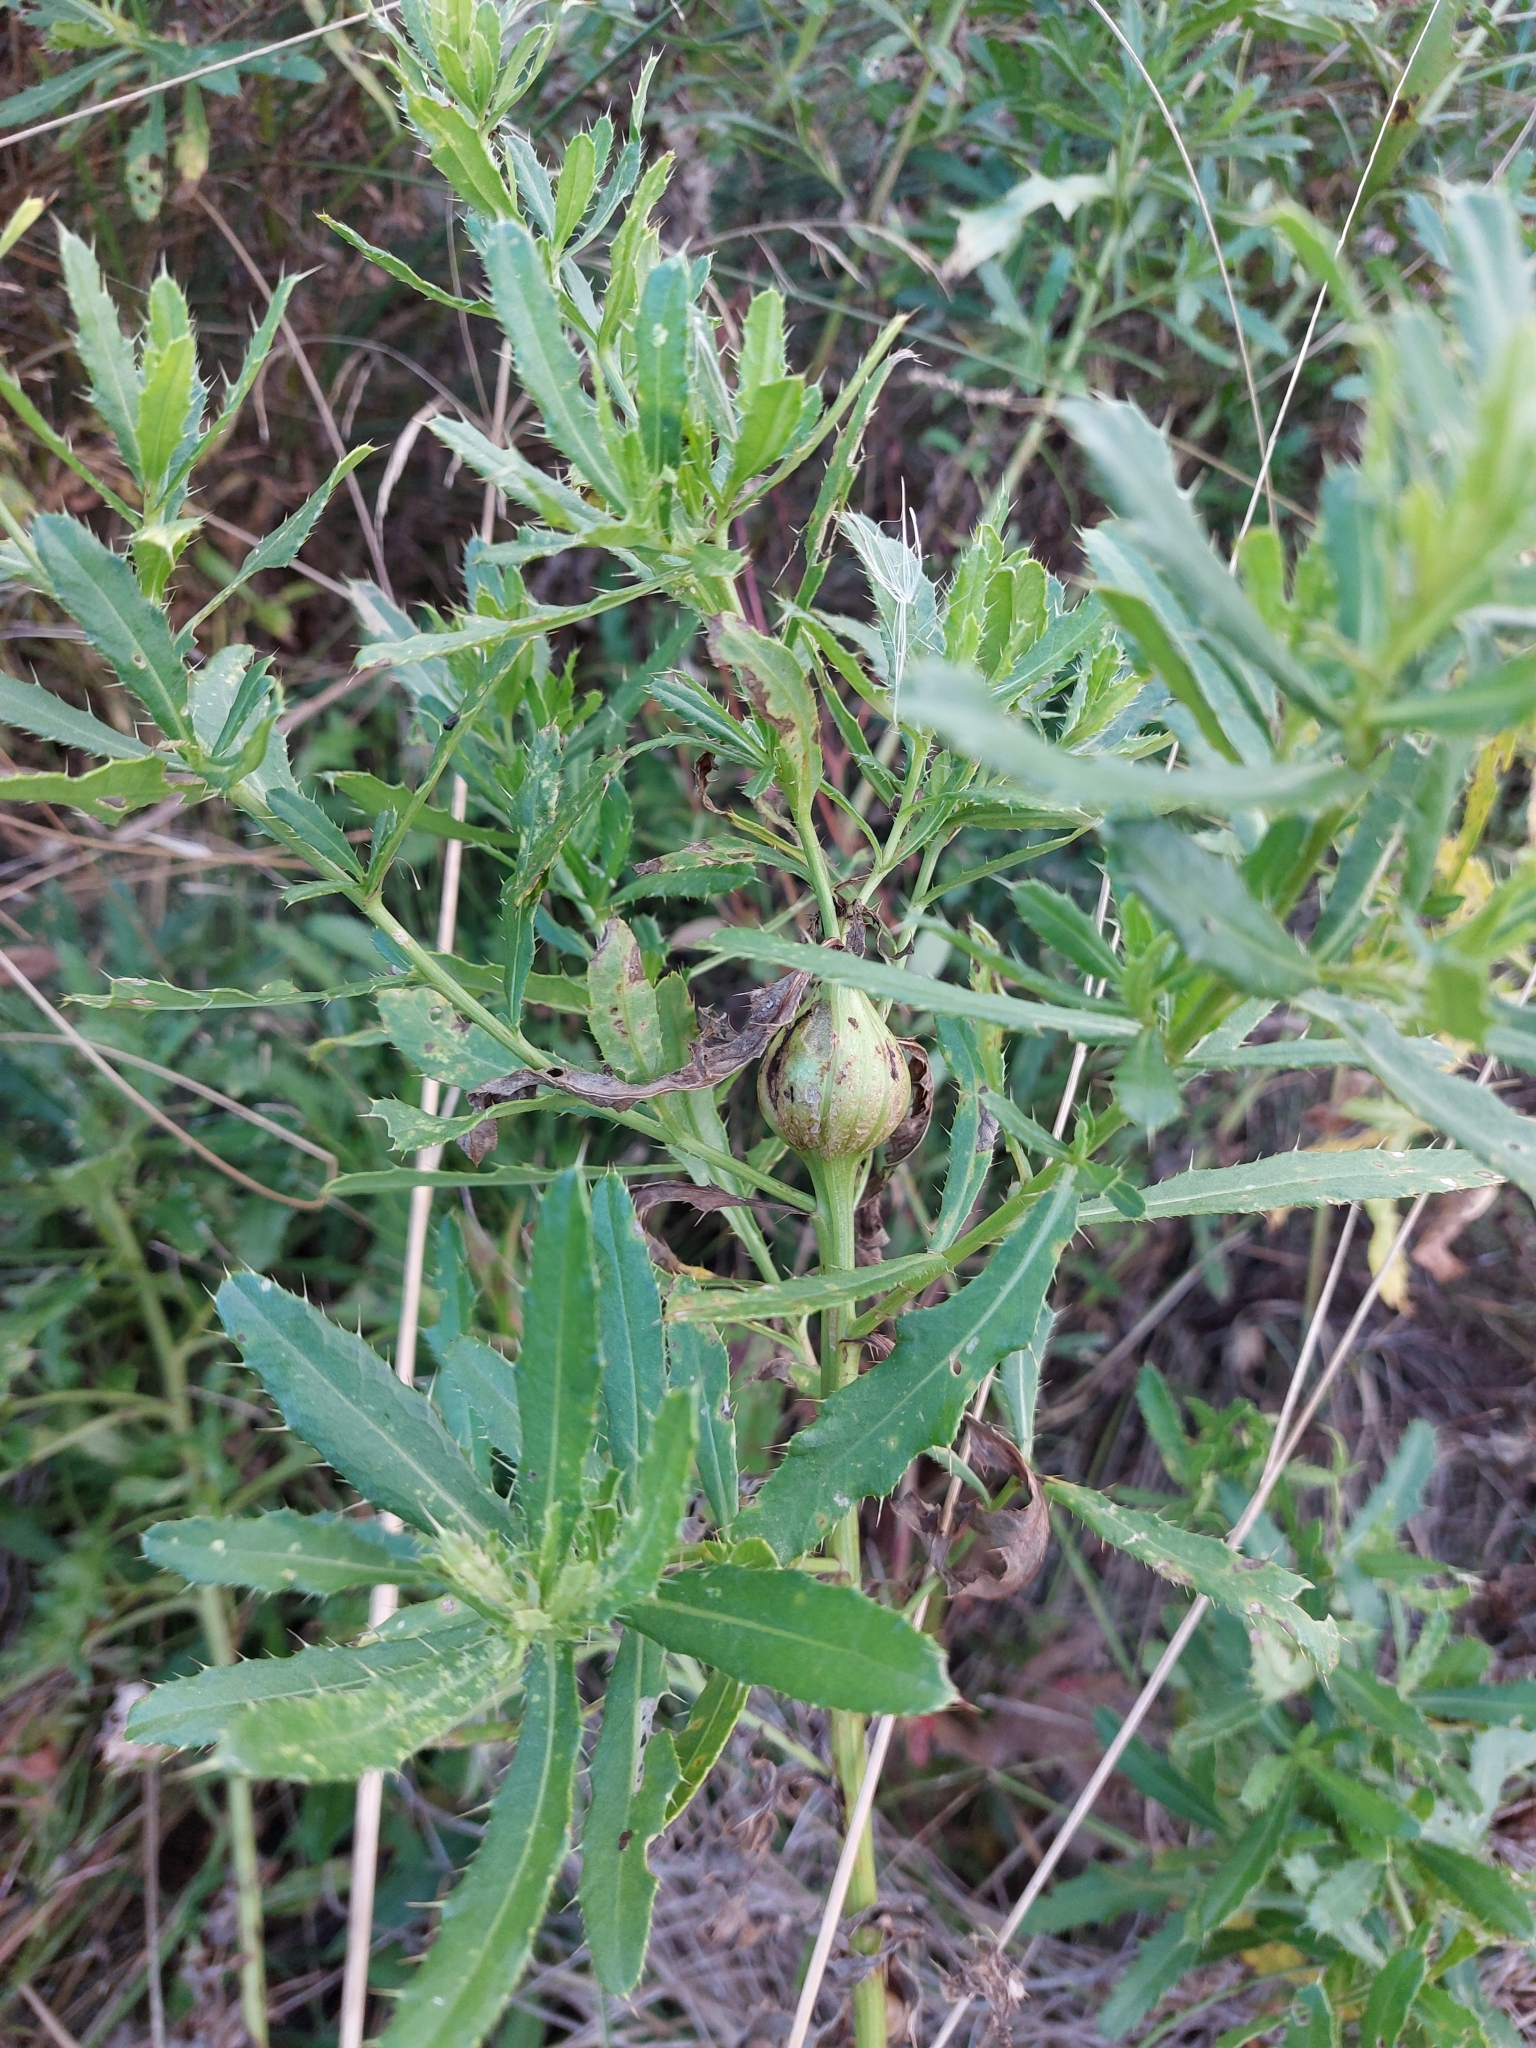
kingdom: Animalia
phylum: Arthropoda
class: Insecta
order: Diptera
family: Tephritidae
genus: Urophora
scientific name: Urophora cardui
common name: Fruit fly
